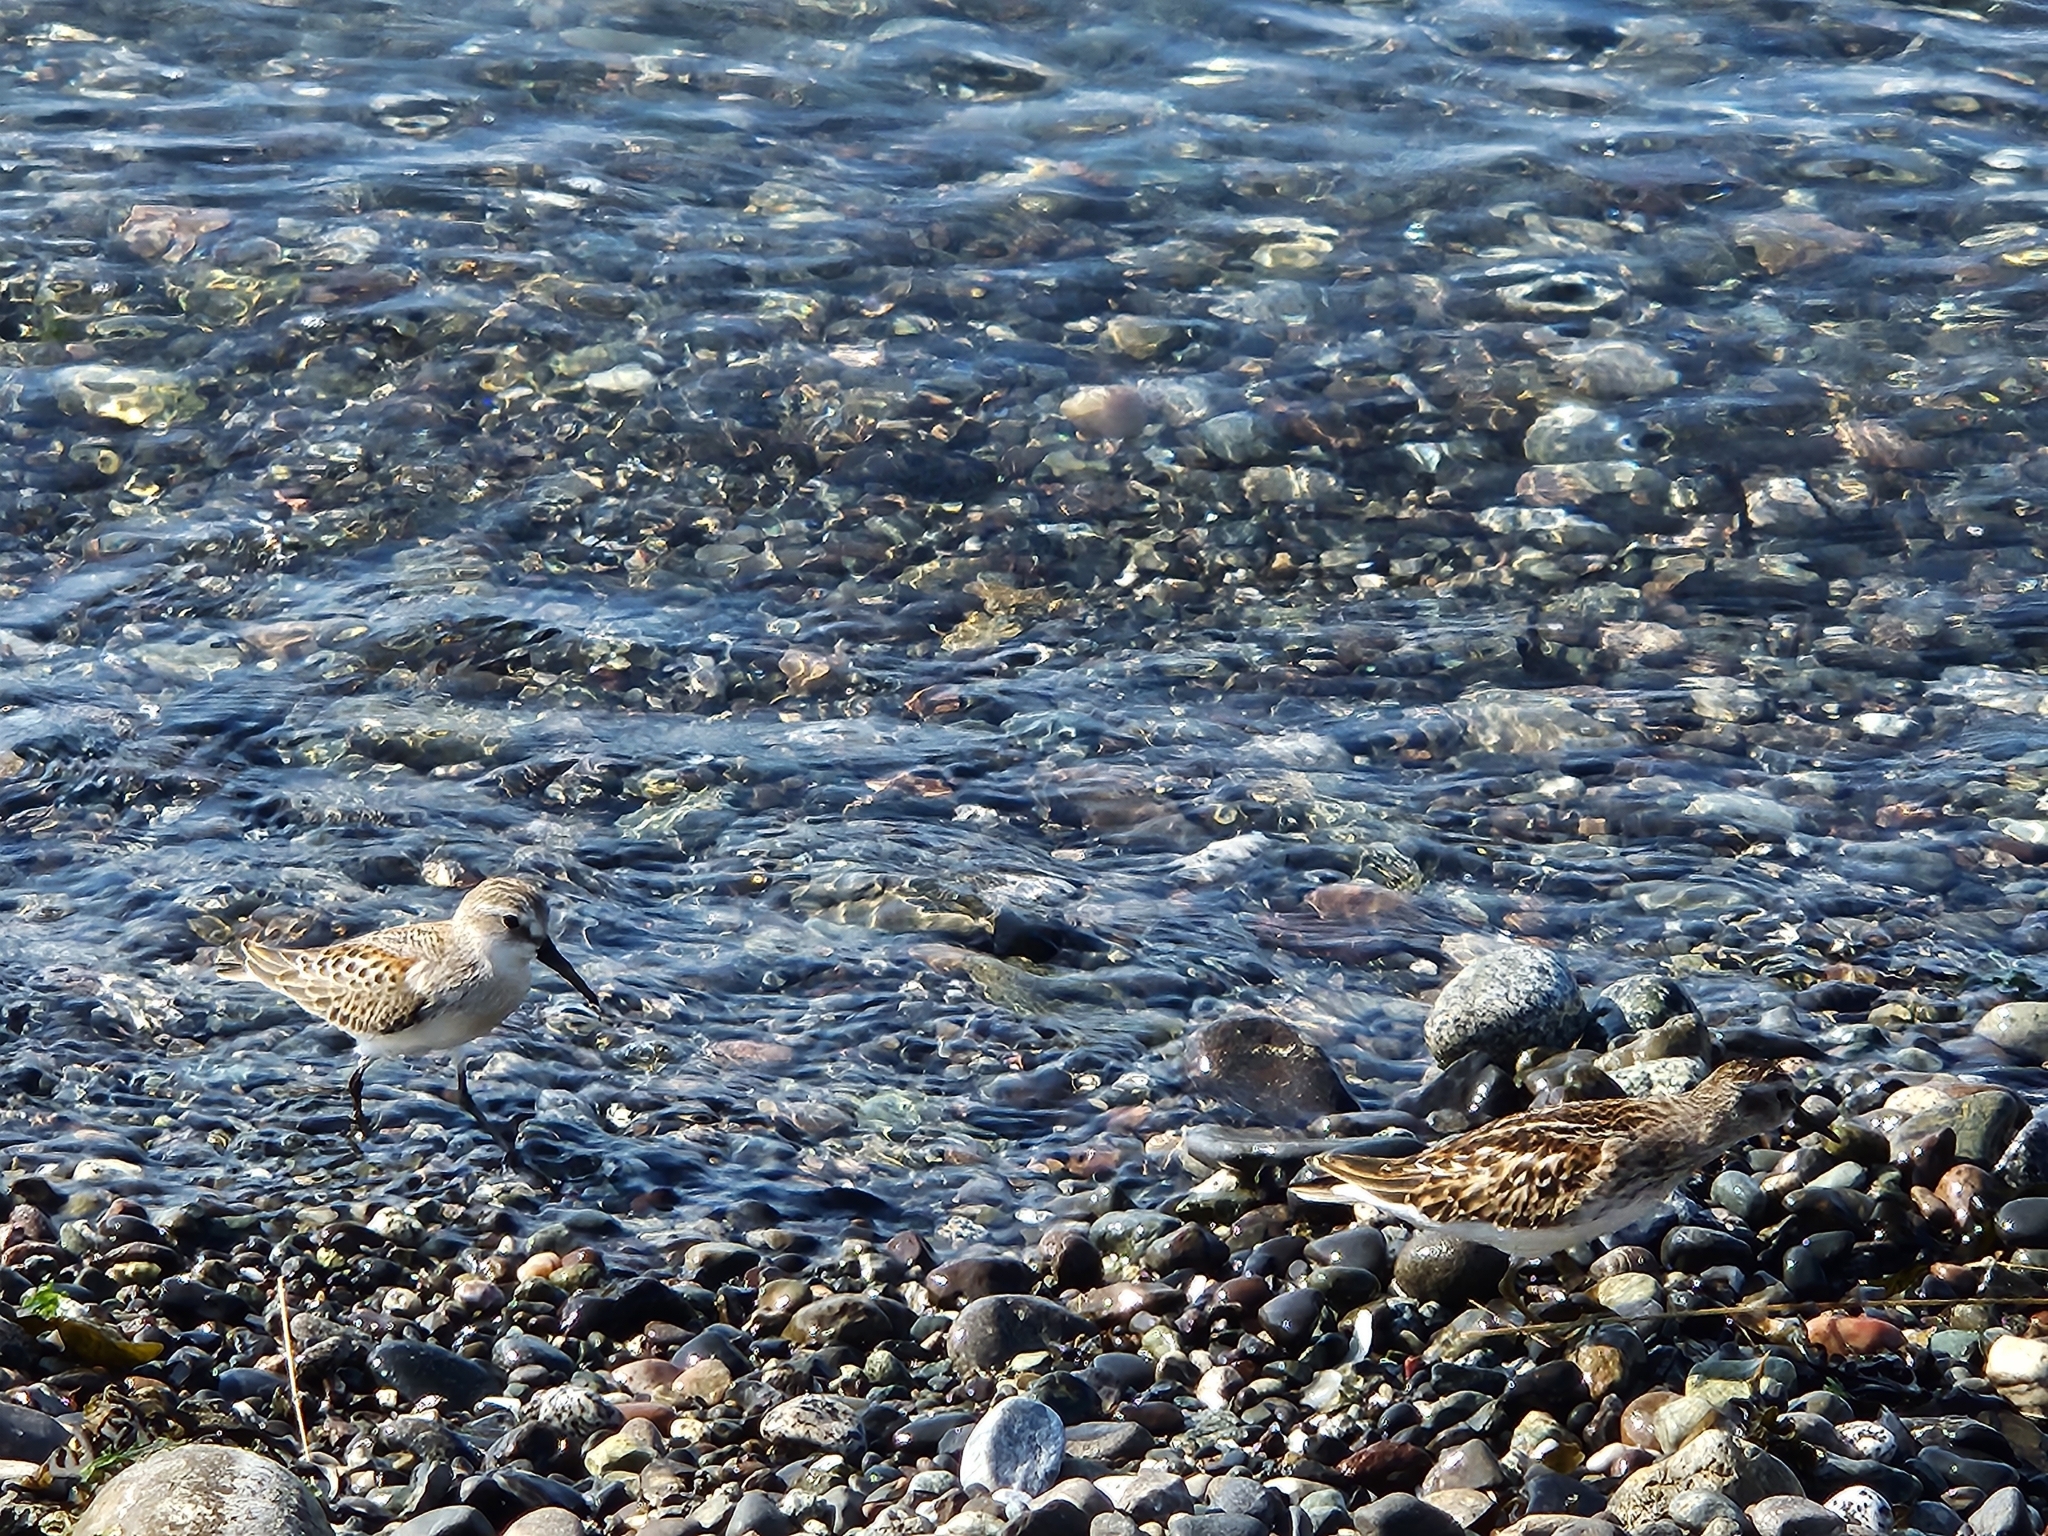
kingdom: Animalia
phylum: Chordata
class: Aves
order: Charadriiformes
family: Scolopacidae
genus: Calidris
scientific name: Calidris mauri
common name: Western sandpiper
